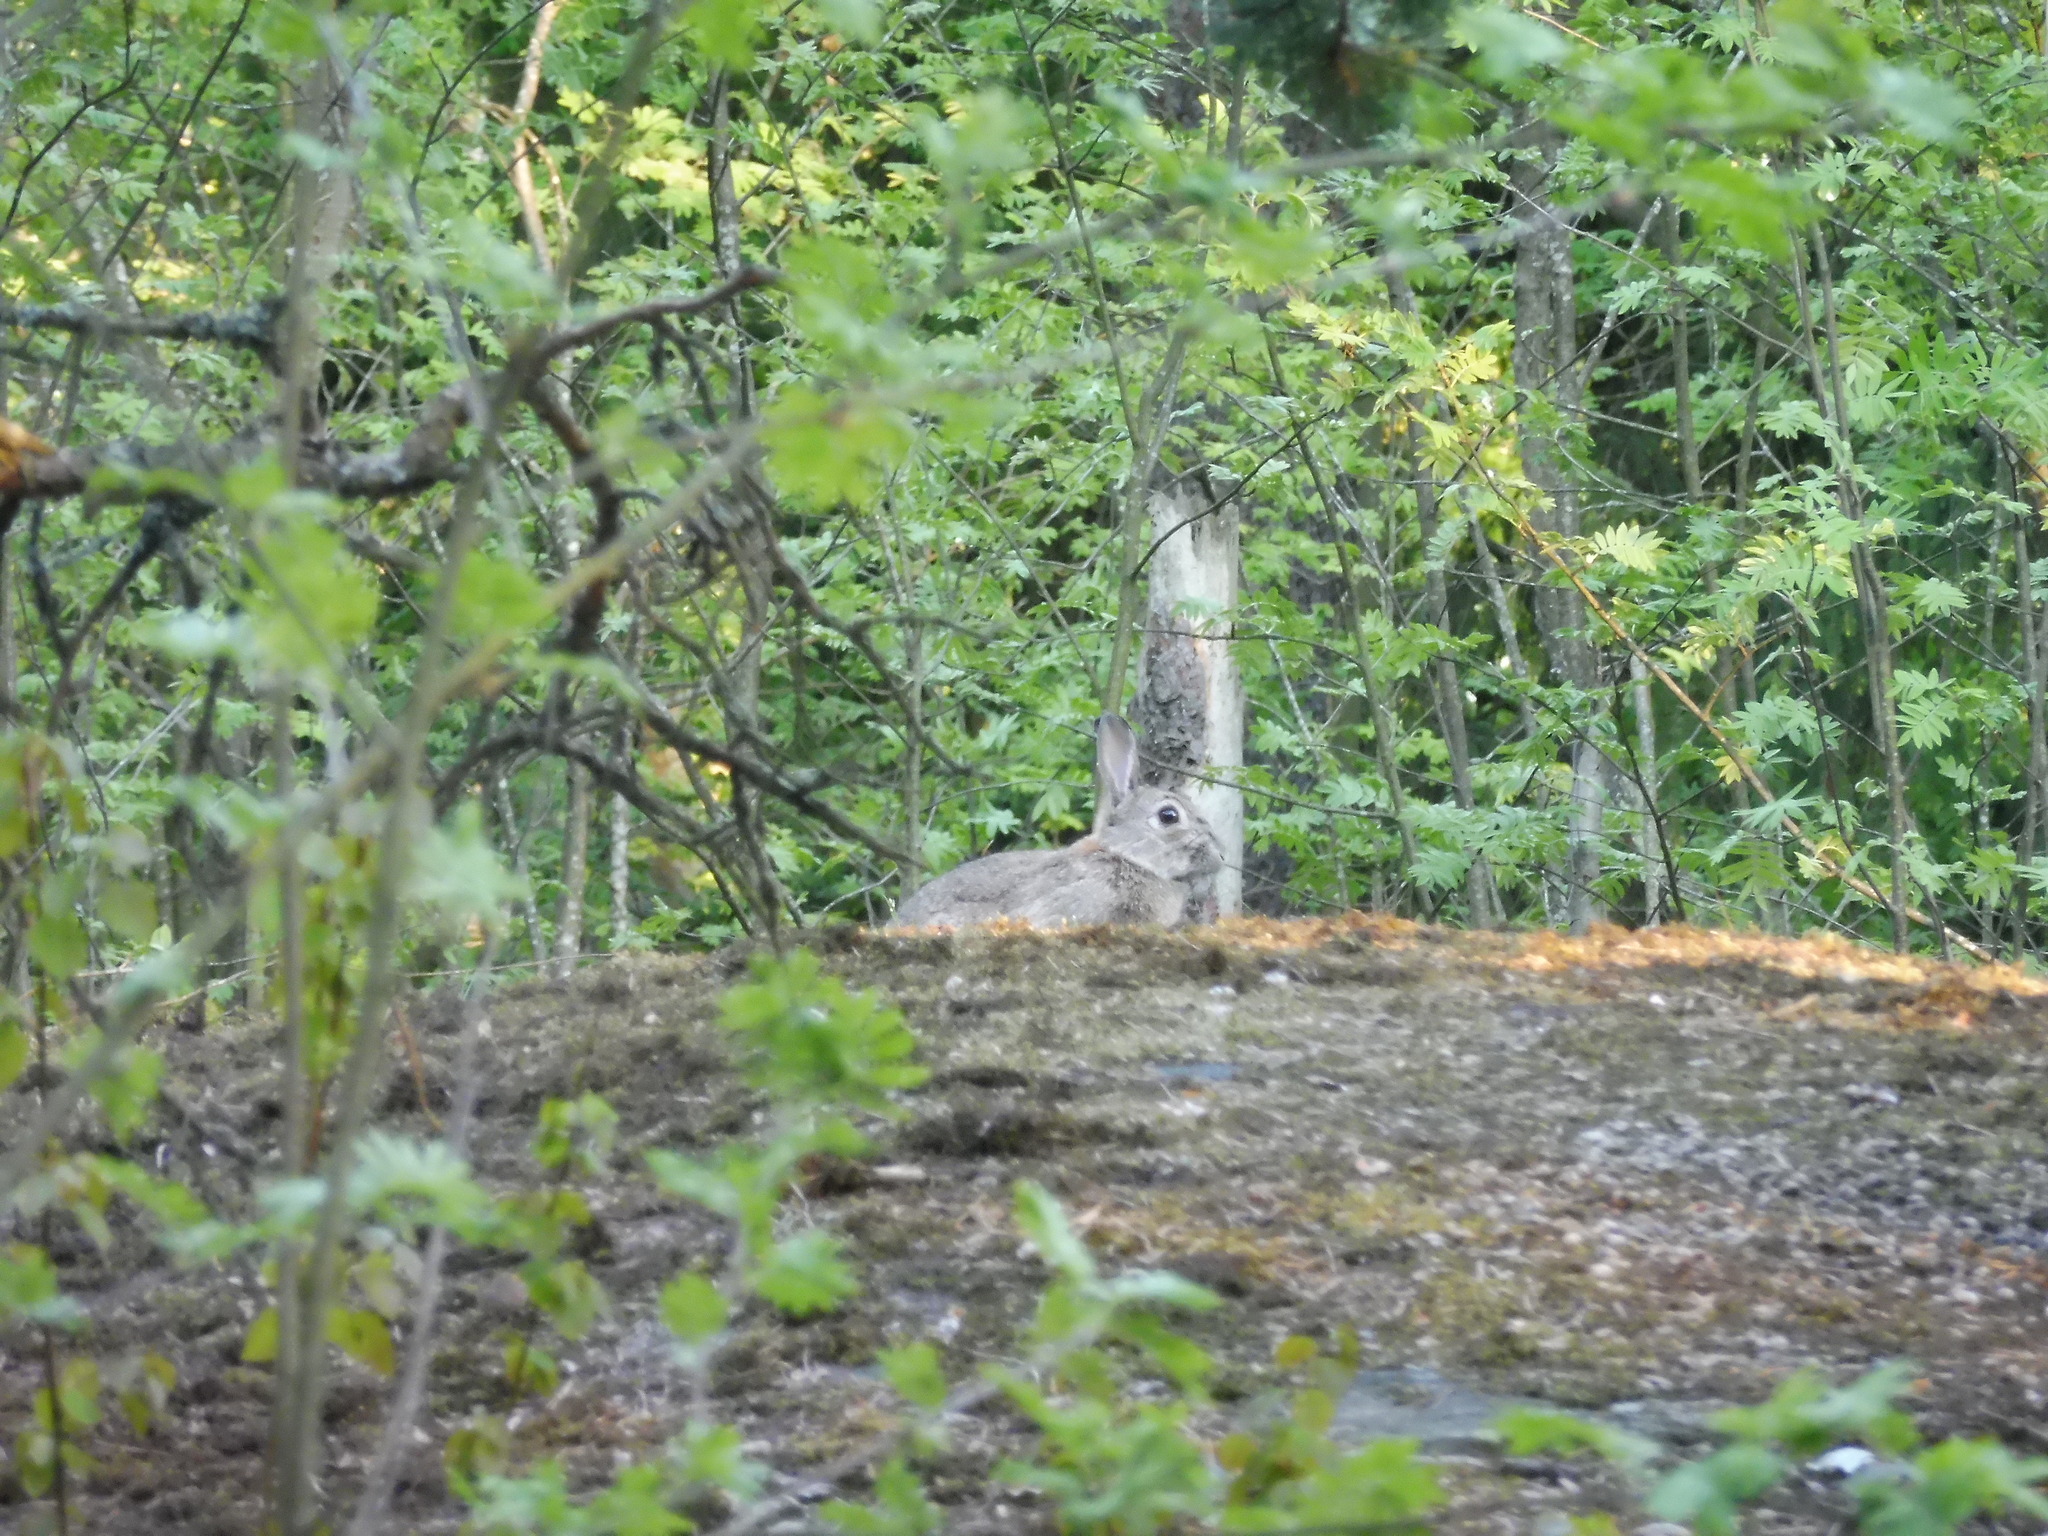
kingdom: Animalia
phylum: Chordata
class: Mammalia
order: Lagomorpha
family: Leporidae
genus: Oryctolagus
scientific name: Oryctolagus cuniculus
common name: European rabbit
